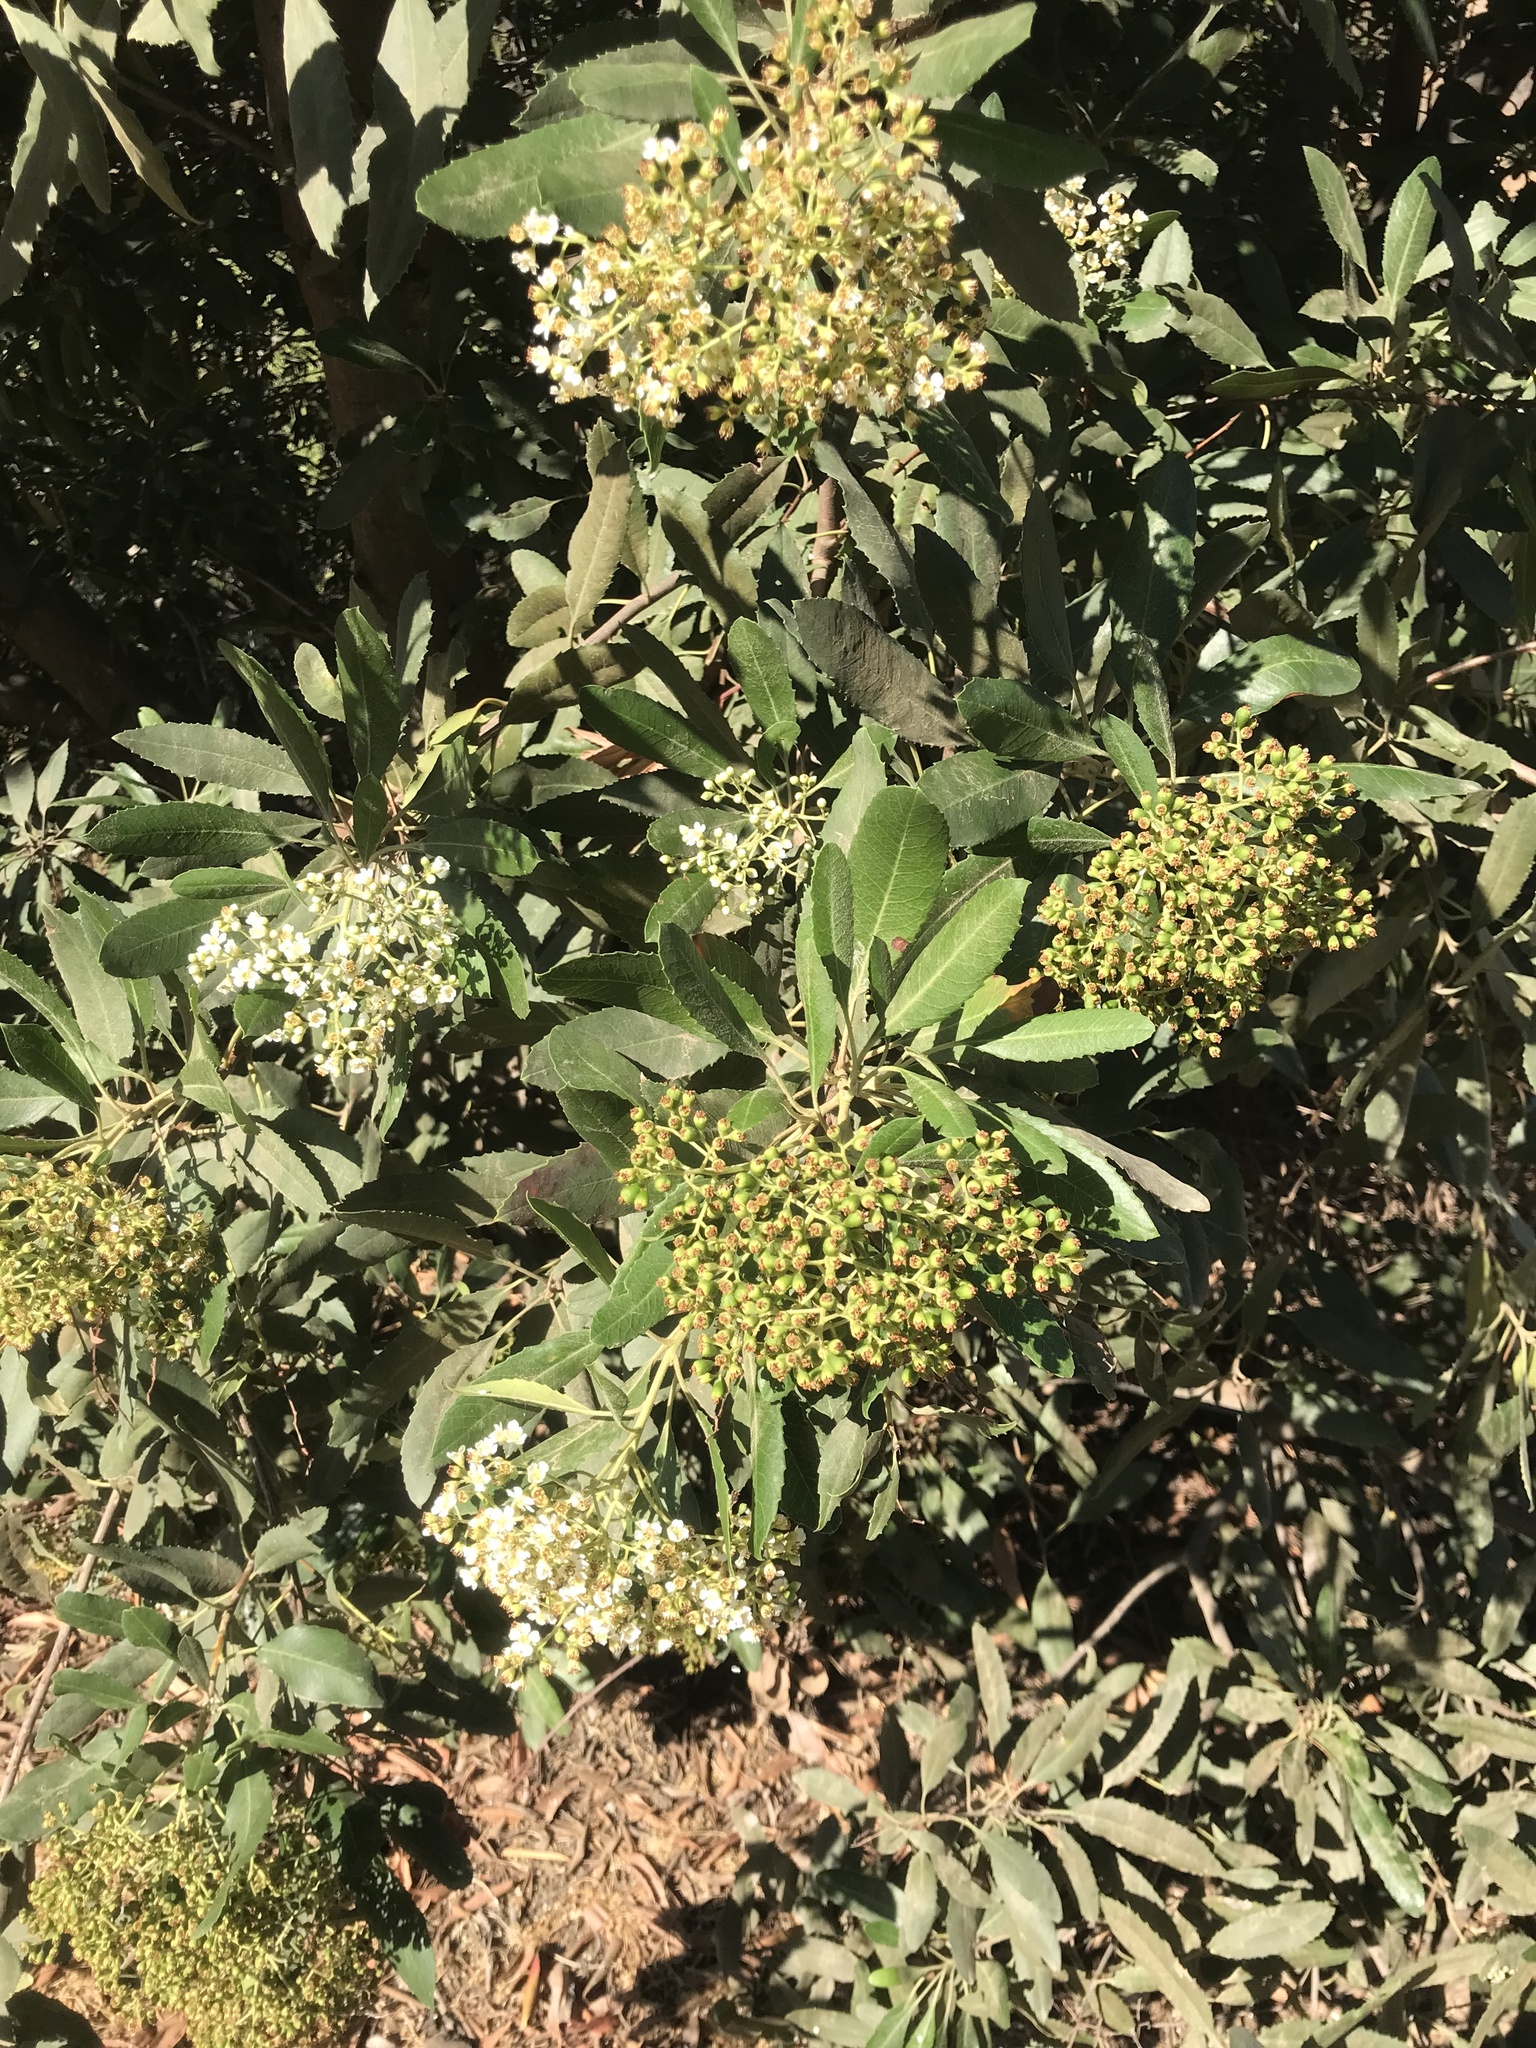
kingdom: Plantae
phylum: Tracheophyta
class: Magnoliopsida
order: Rosales
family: Rosaceae
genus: Heteromeles
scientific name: Heteromeles arbutifolia
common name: California-holly
